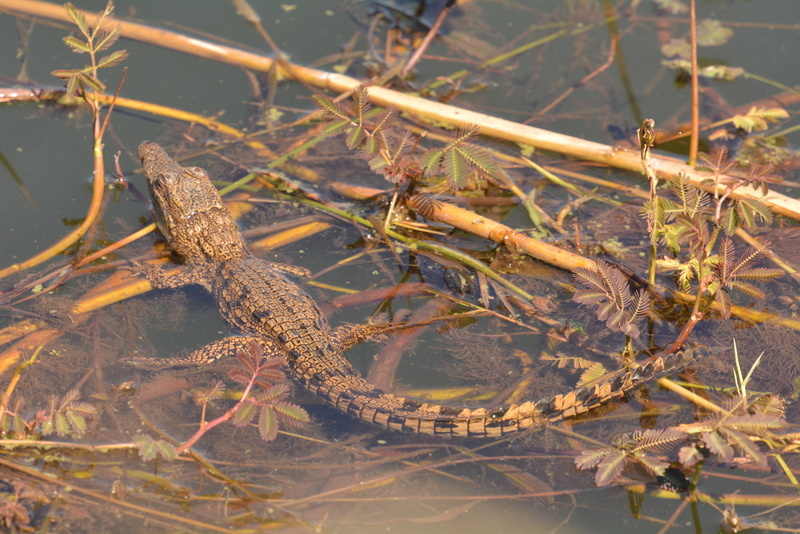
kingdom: Animalia
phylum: Chordata
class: Crocodylia
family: Crocodylidae
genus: Crocodylus
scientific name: Crocodylus niloticus
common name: Nile crocodile
